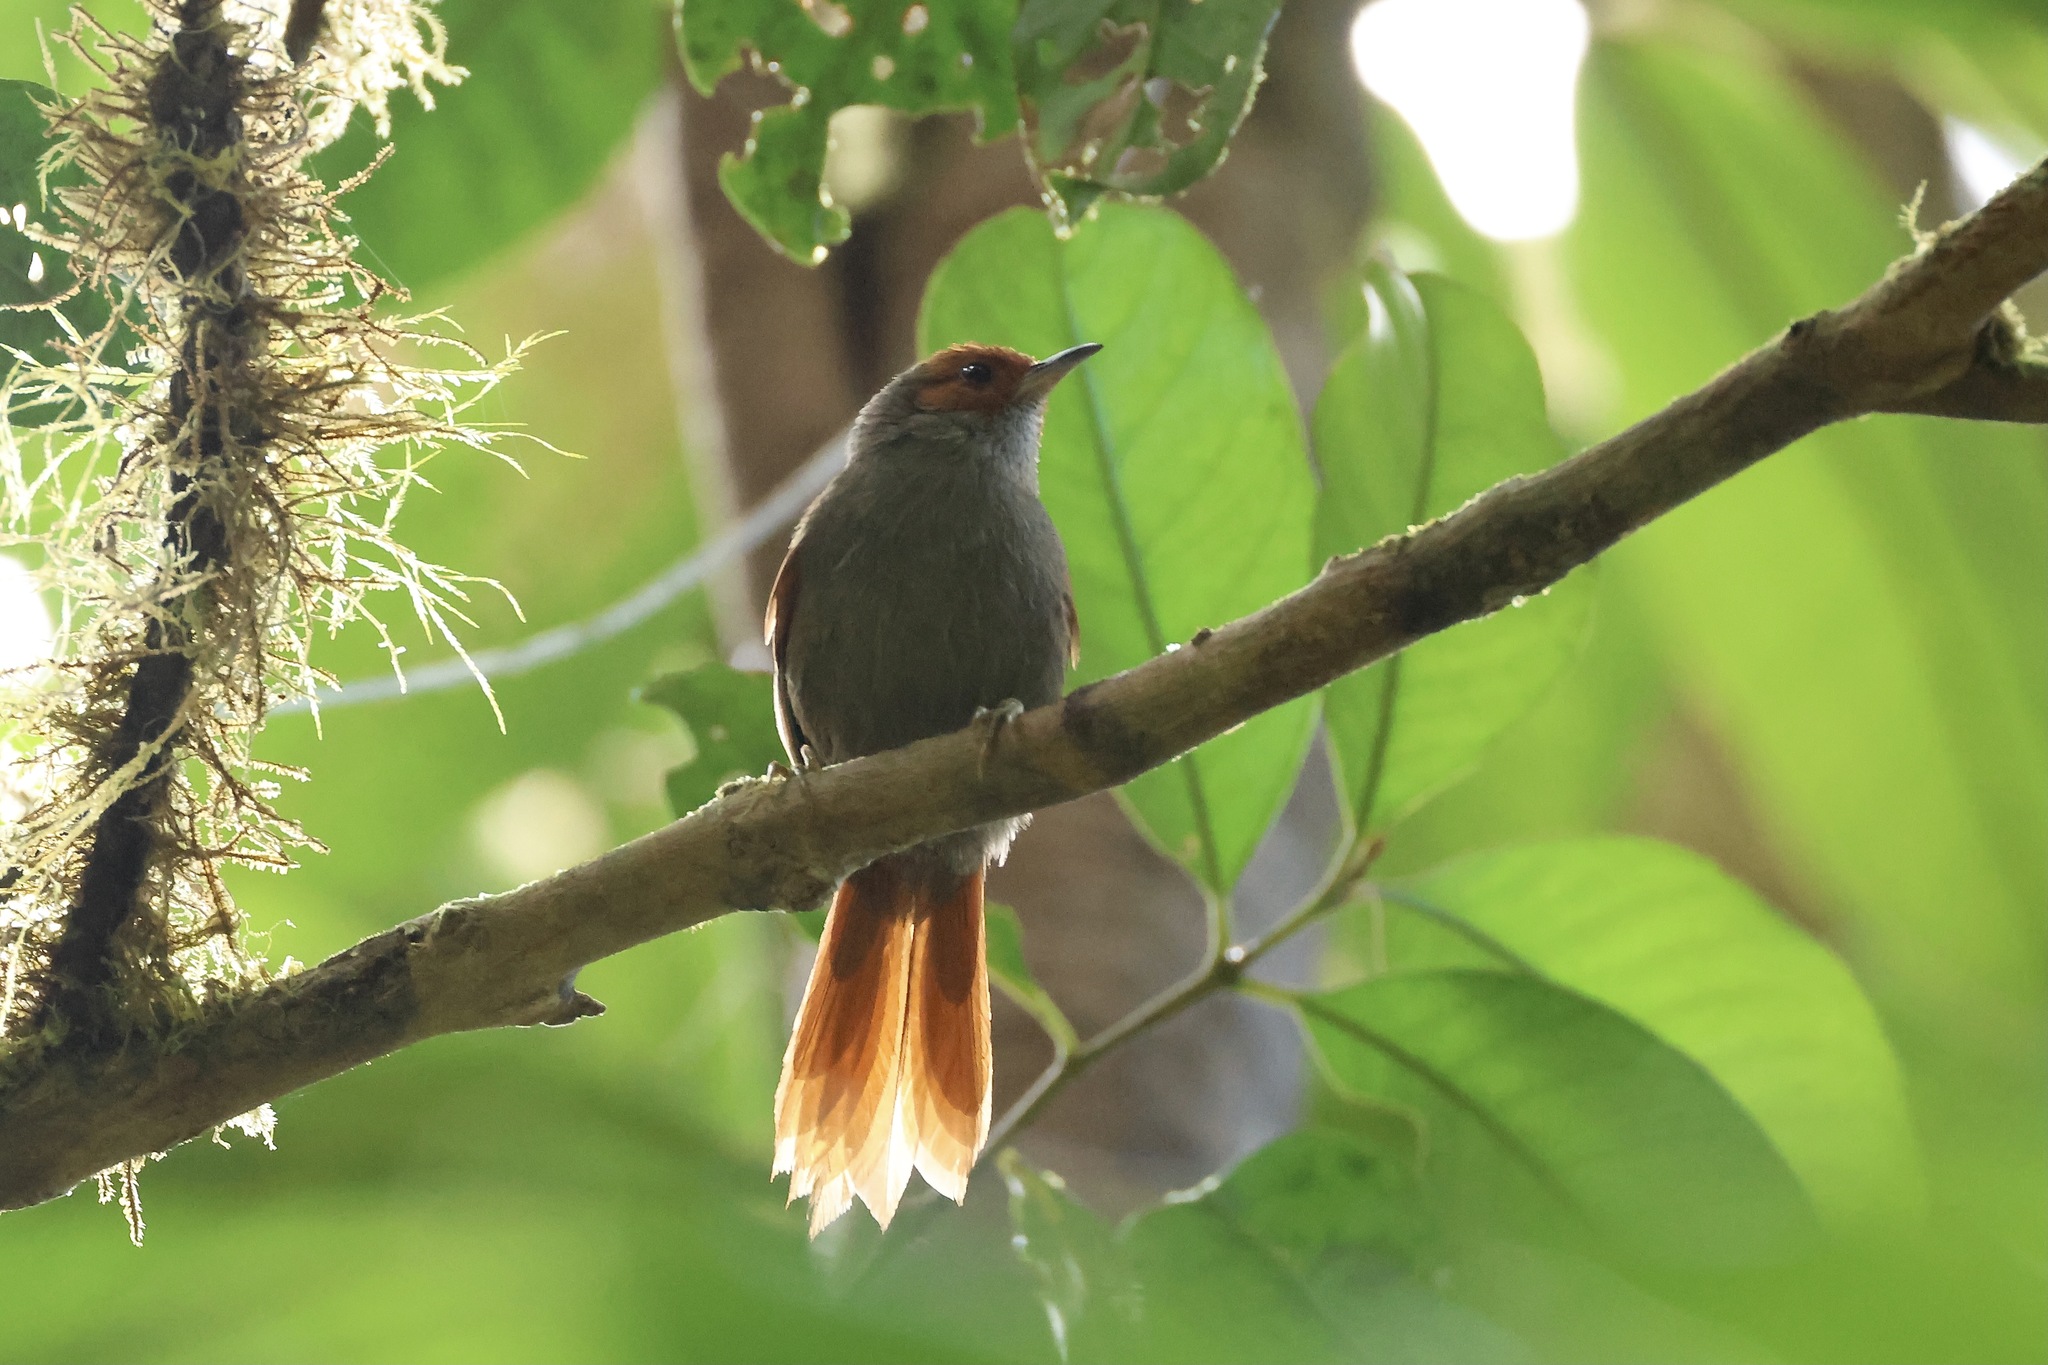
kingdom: Animalia
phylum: Chordata
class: Aves
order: Passeriformes
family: Furnariidae
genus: Cranioleuca
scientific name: Cranioleuca erythrops
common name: Red-faced spinetail
